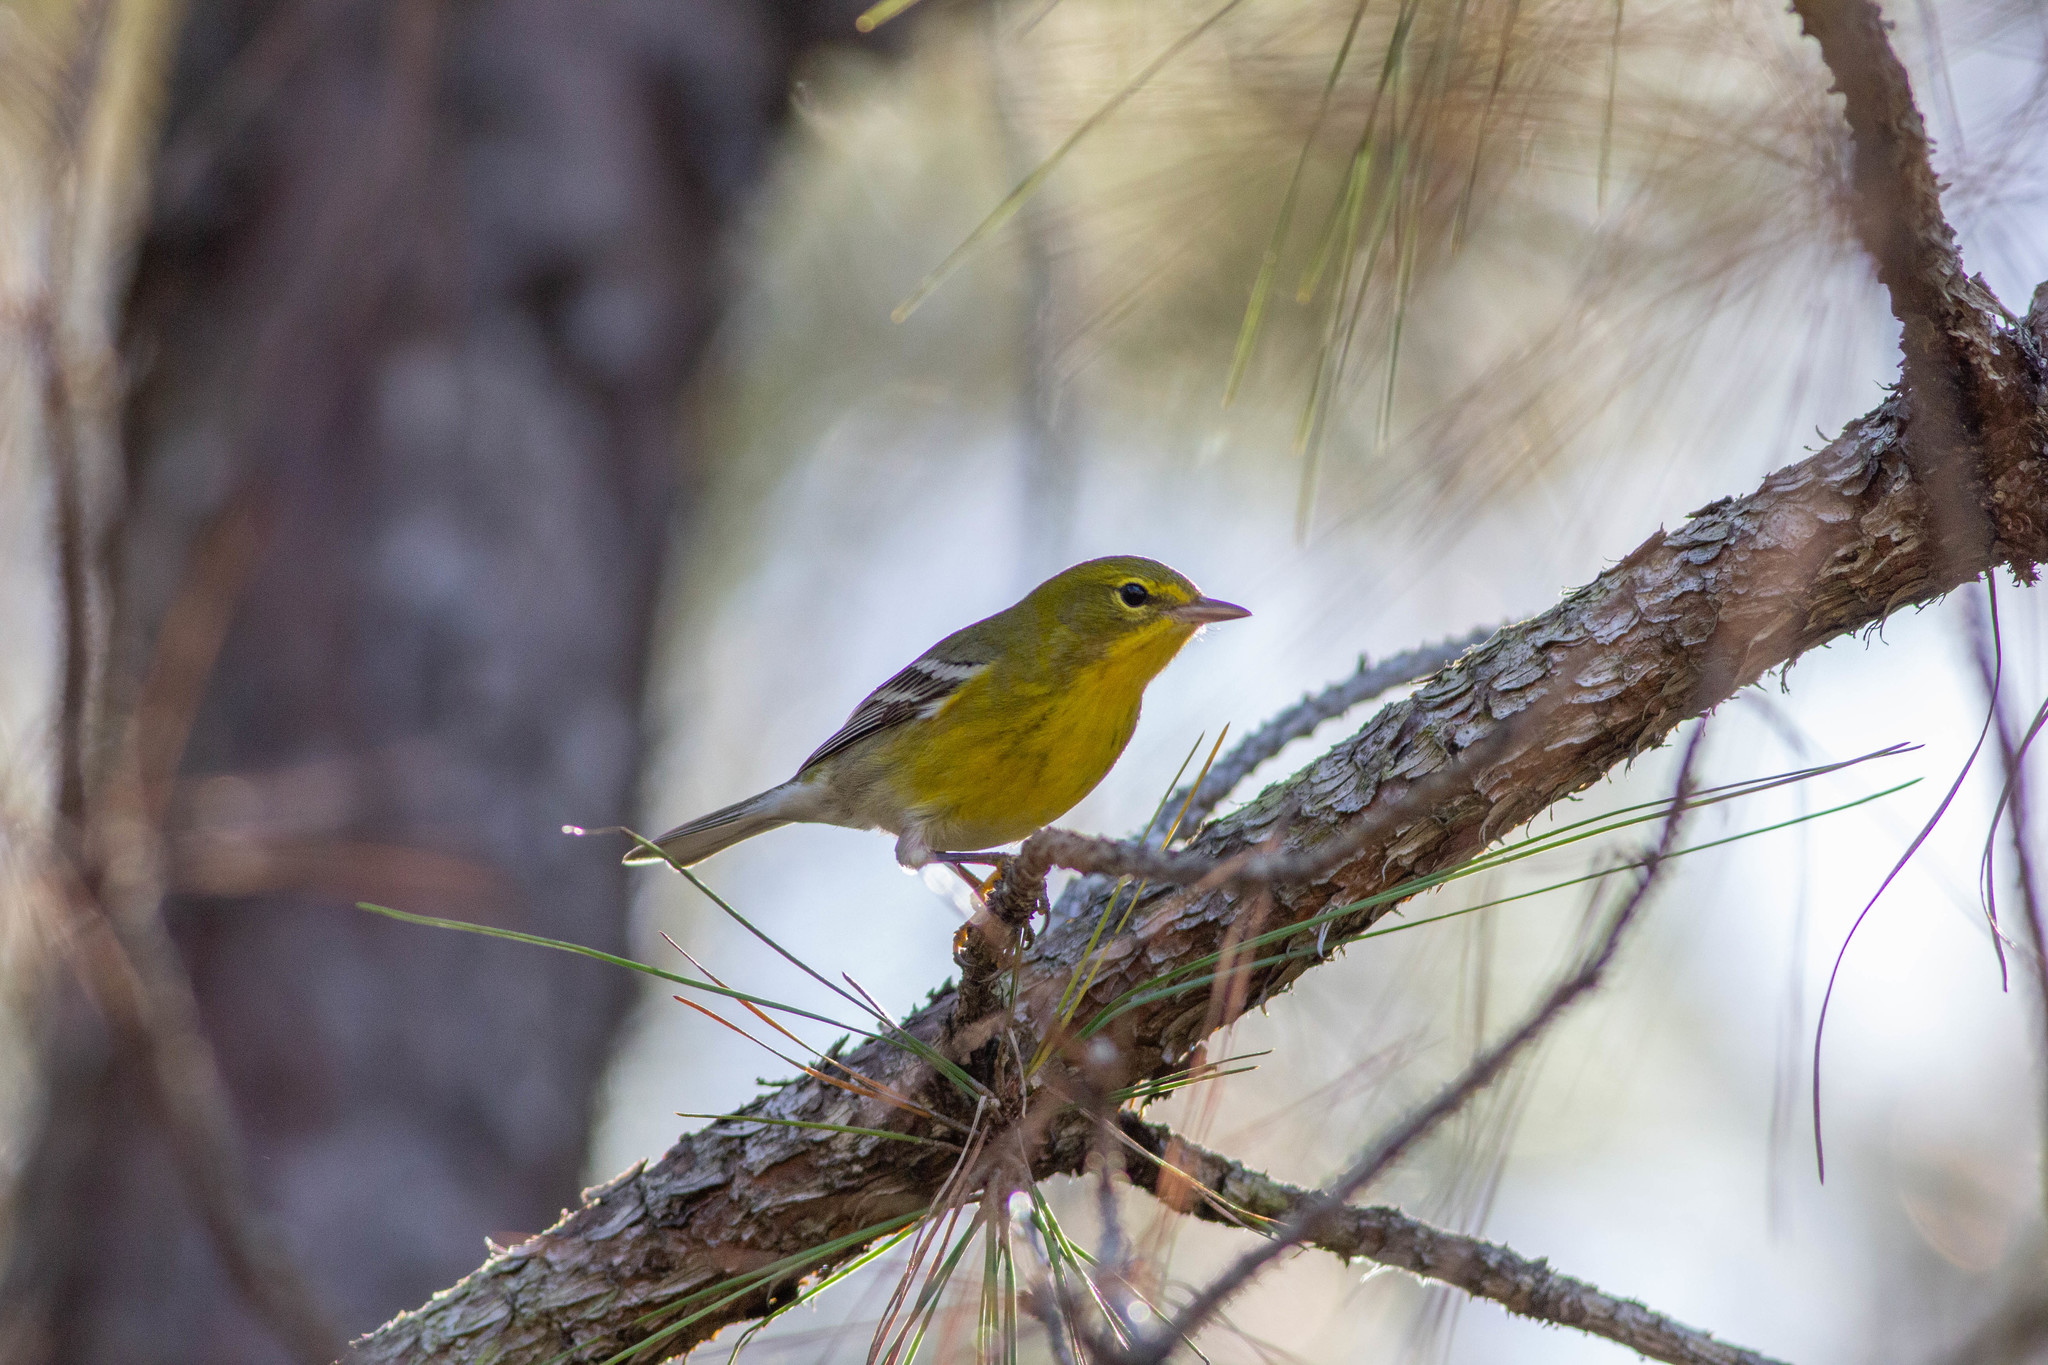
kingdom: Animalia
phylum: Chordata
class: Aves
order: Passeriformes
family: Parulidae
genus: Setophaga
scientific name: Setophaga pinus
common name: Pine warbler
